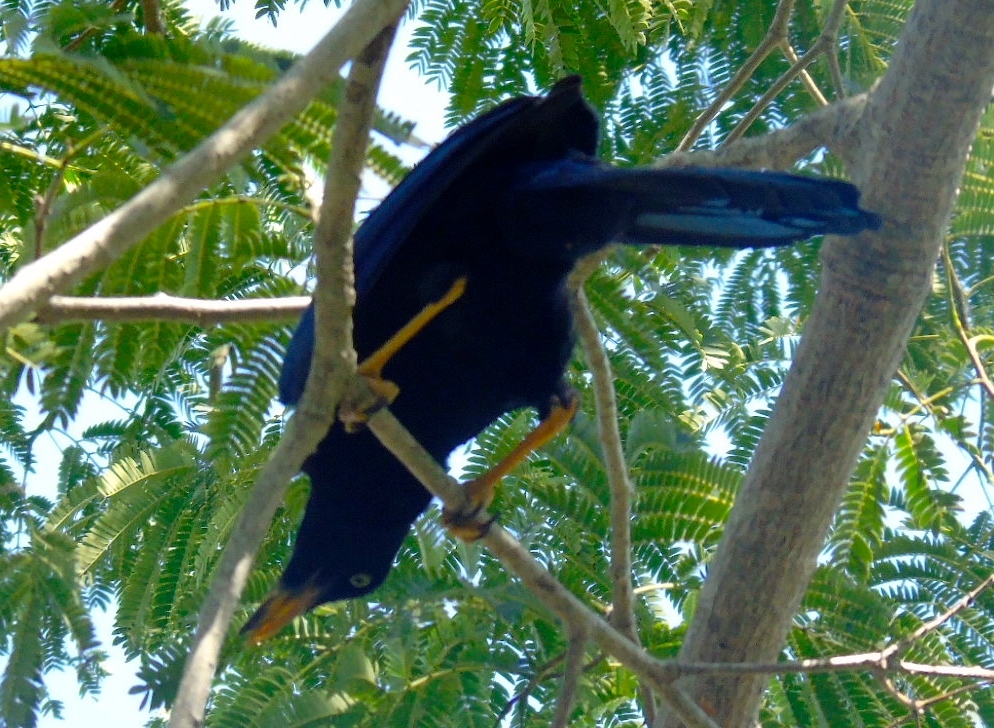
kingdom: Animalia
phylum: Chordata
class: Aves
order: Passeriformes
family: Corvidae
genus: Cyanocorax
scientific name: Cyanocorax beecheii
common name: Purplish-backed jay
